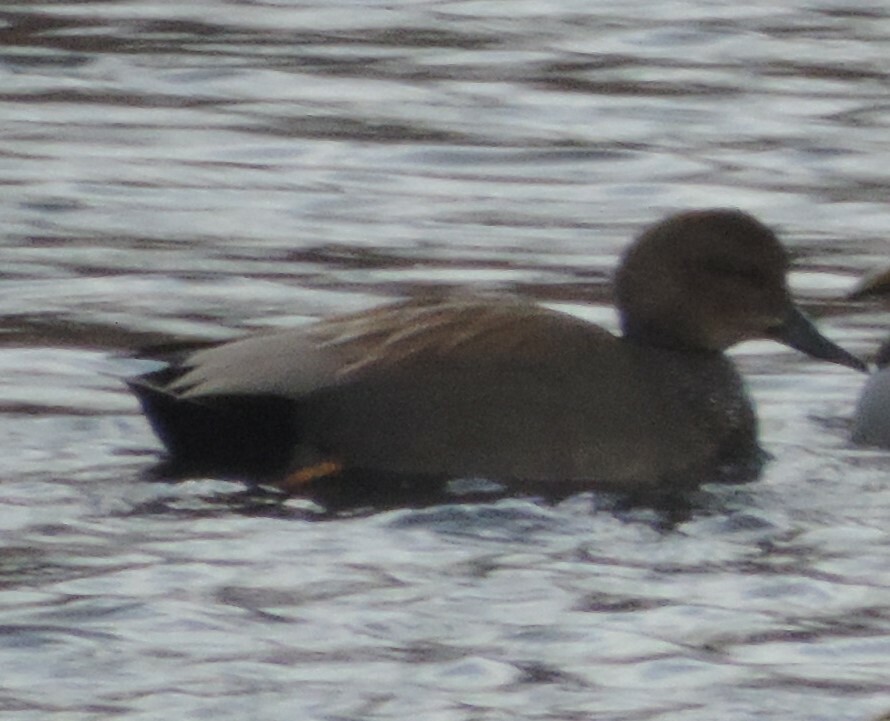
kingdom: Animalia
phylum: Chordata
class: Aves
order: Anseriformes
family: Anatidae
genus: Mareca
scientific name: Mareca strepera
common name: Gadwall
